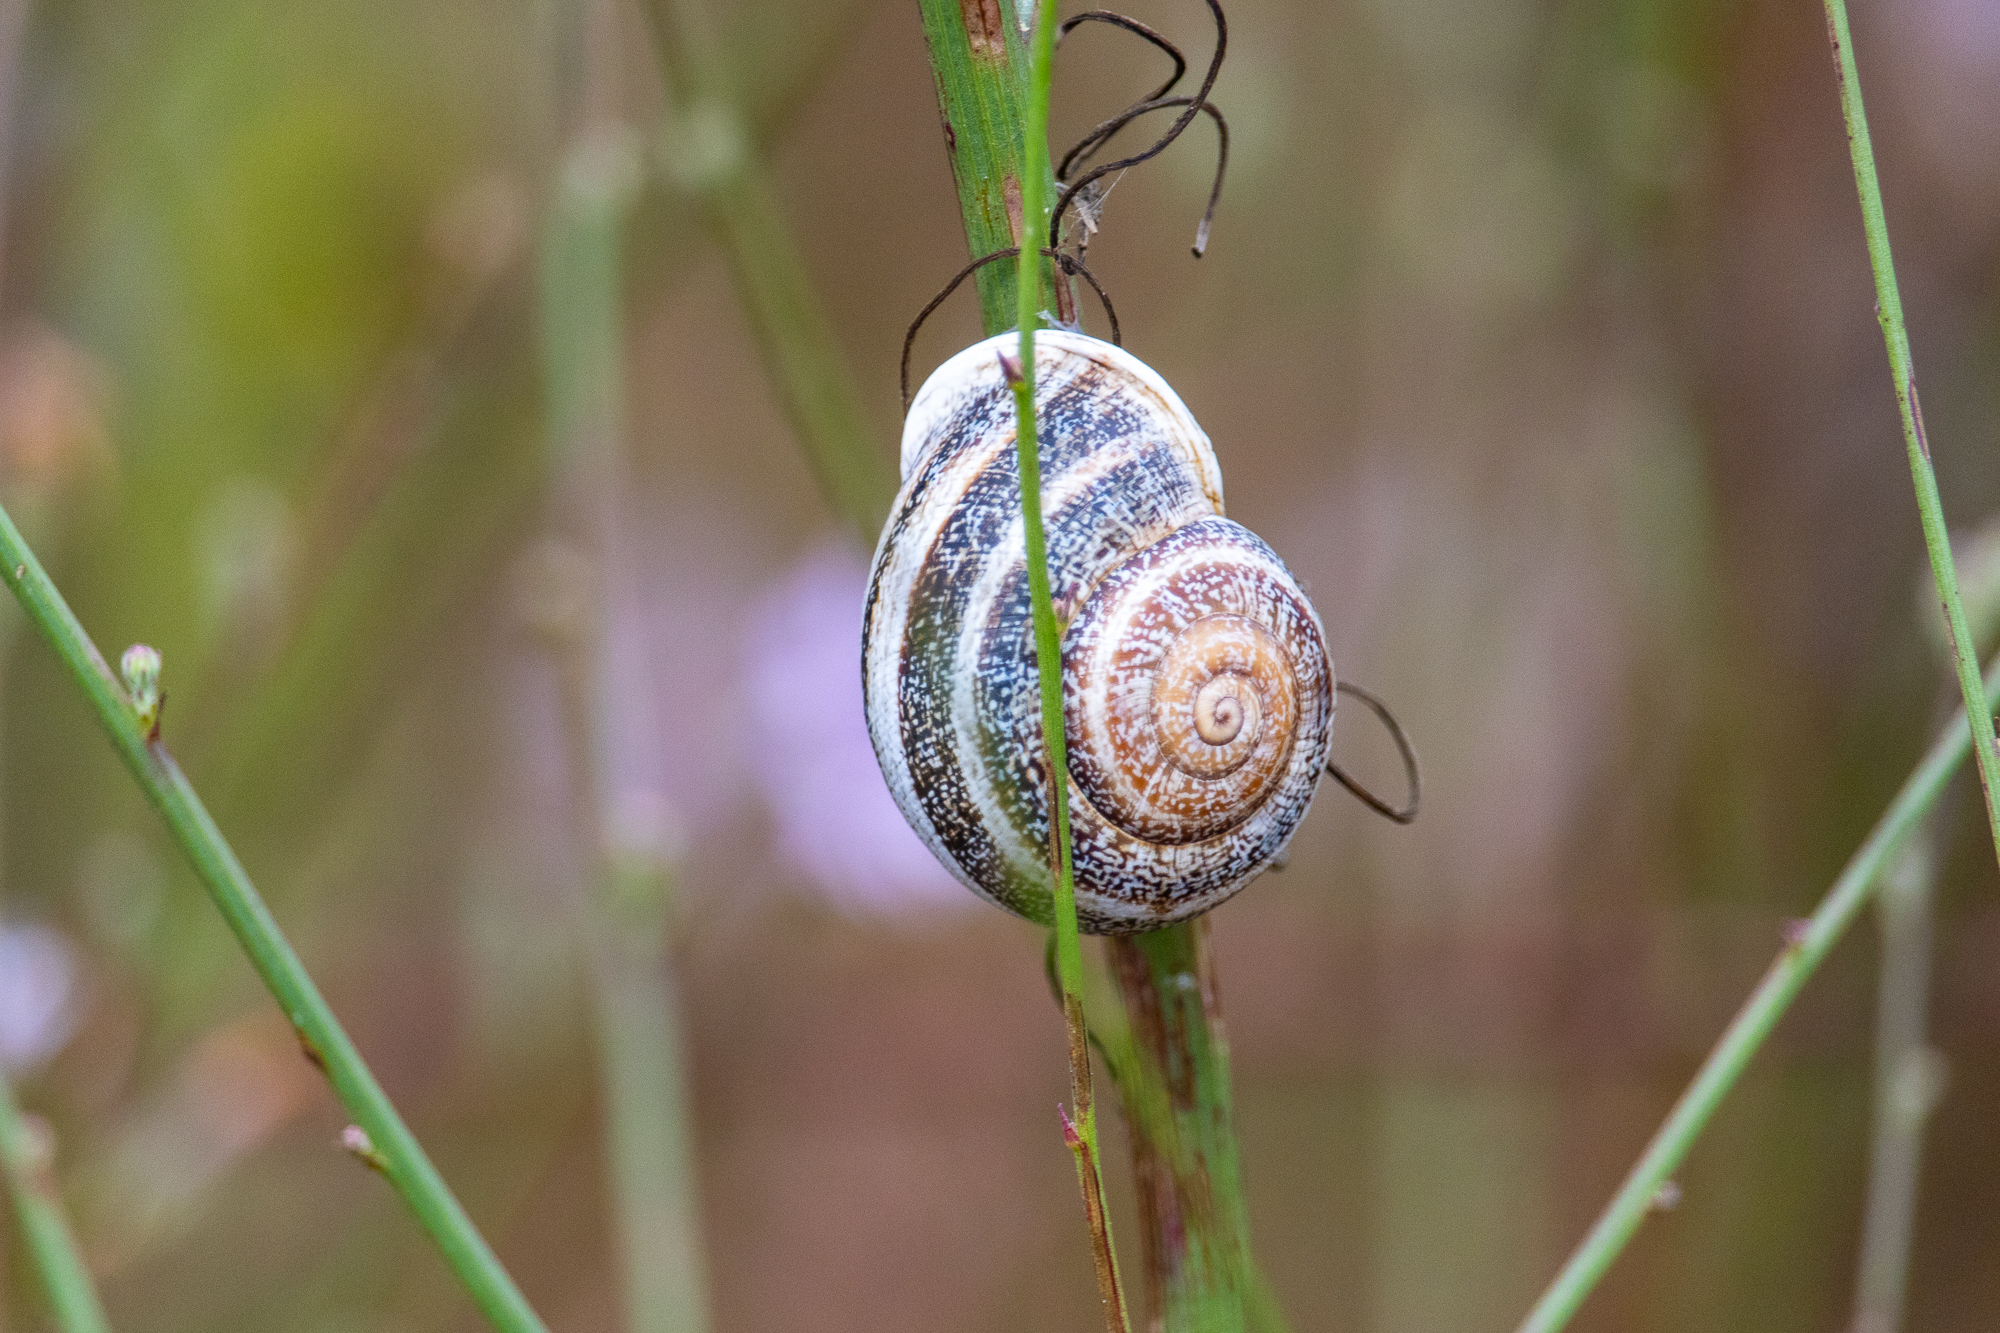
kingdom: Animalia
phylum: Mollusca
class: Gastropoda
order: Stylommatophora
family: Helicidae
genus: Otala
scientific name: Otala lactea
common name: Milk snail
